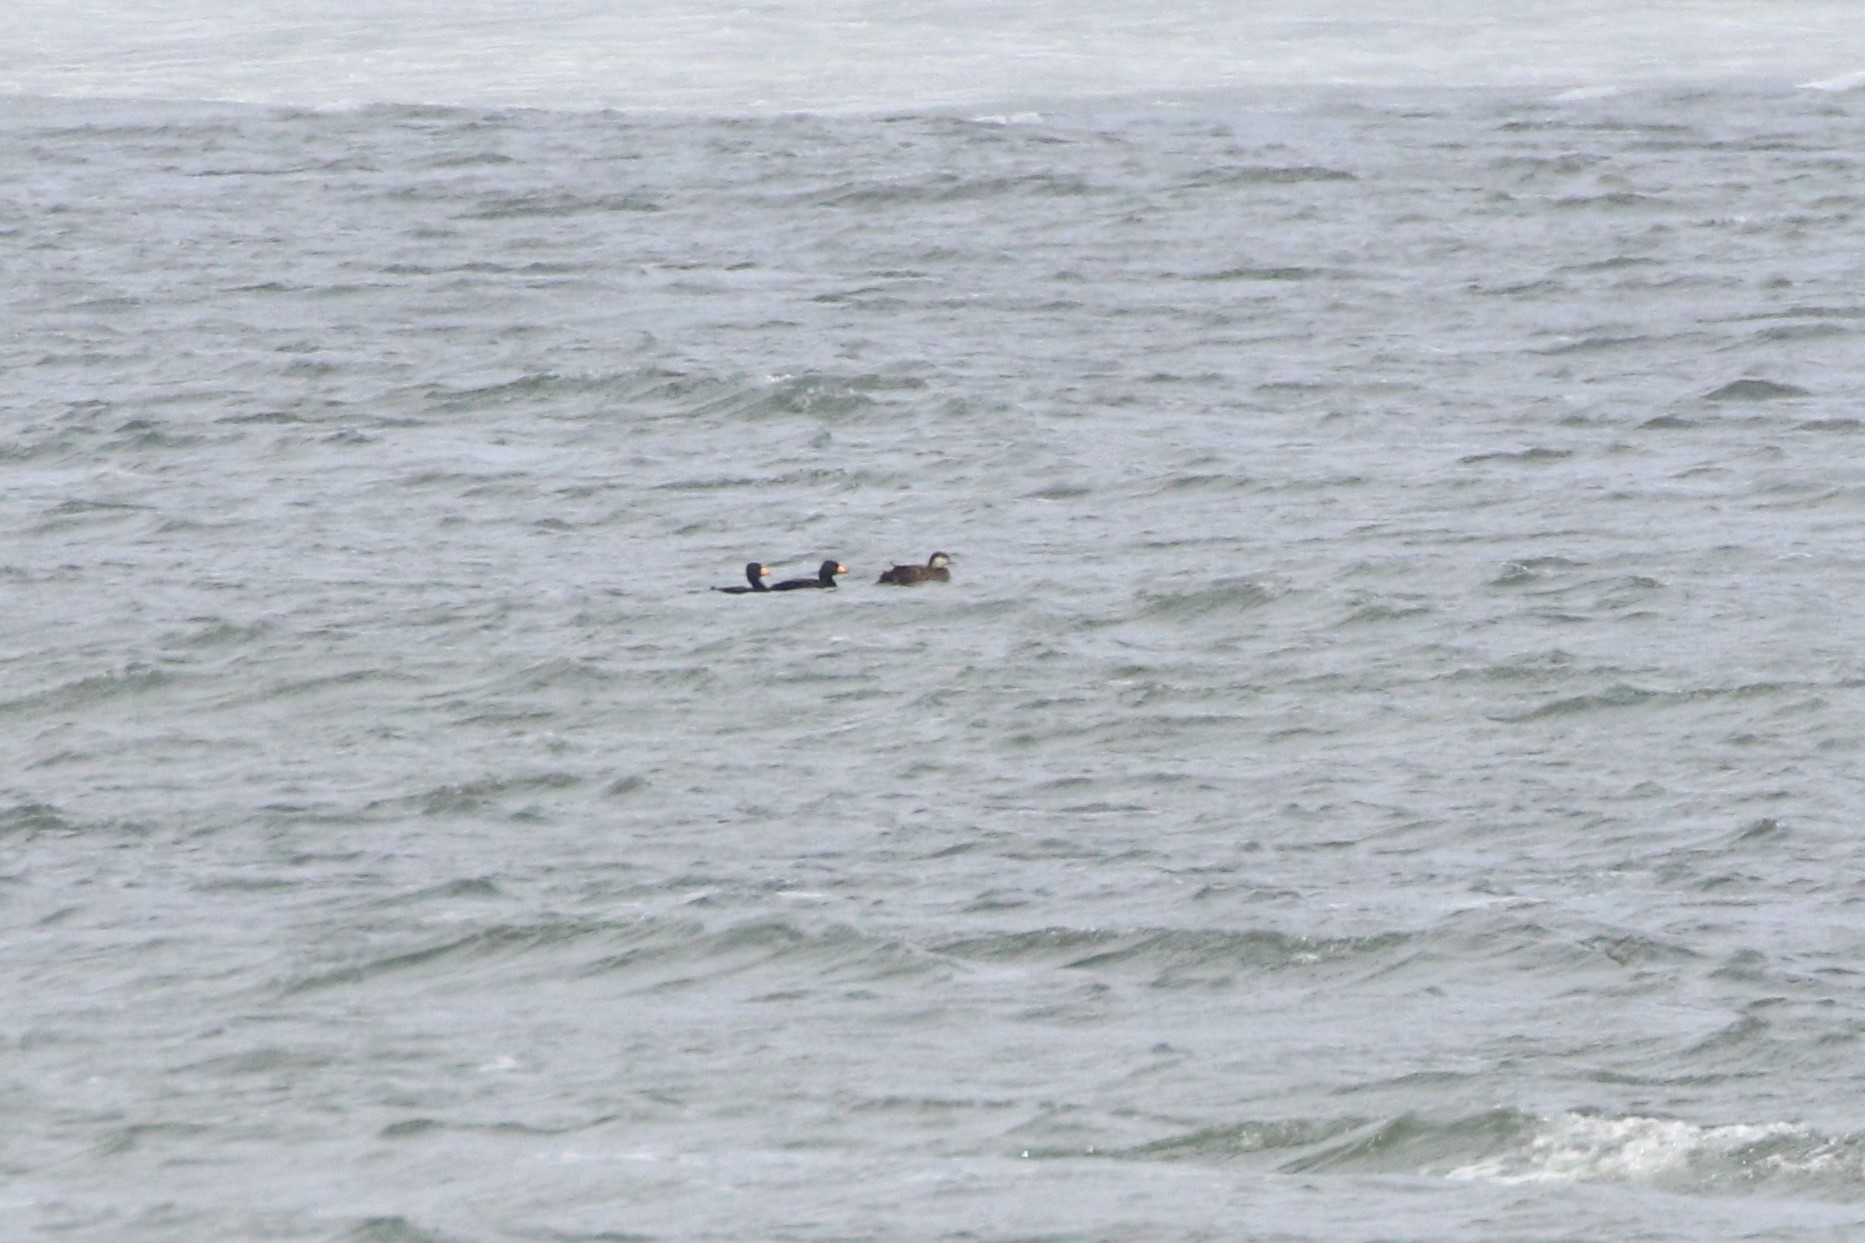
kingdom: Animalia
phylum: Chordata
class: Aves
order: Anseriformes
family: Anatidae
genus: Melanitta
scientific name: Melanitta americana
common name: Black scoter
